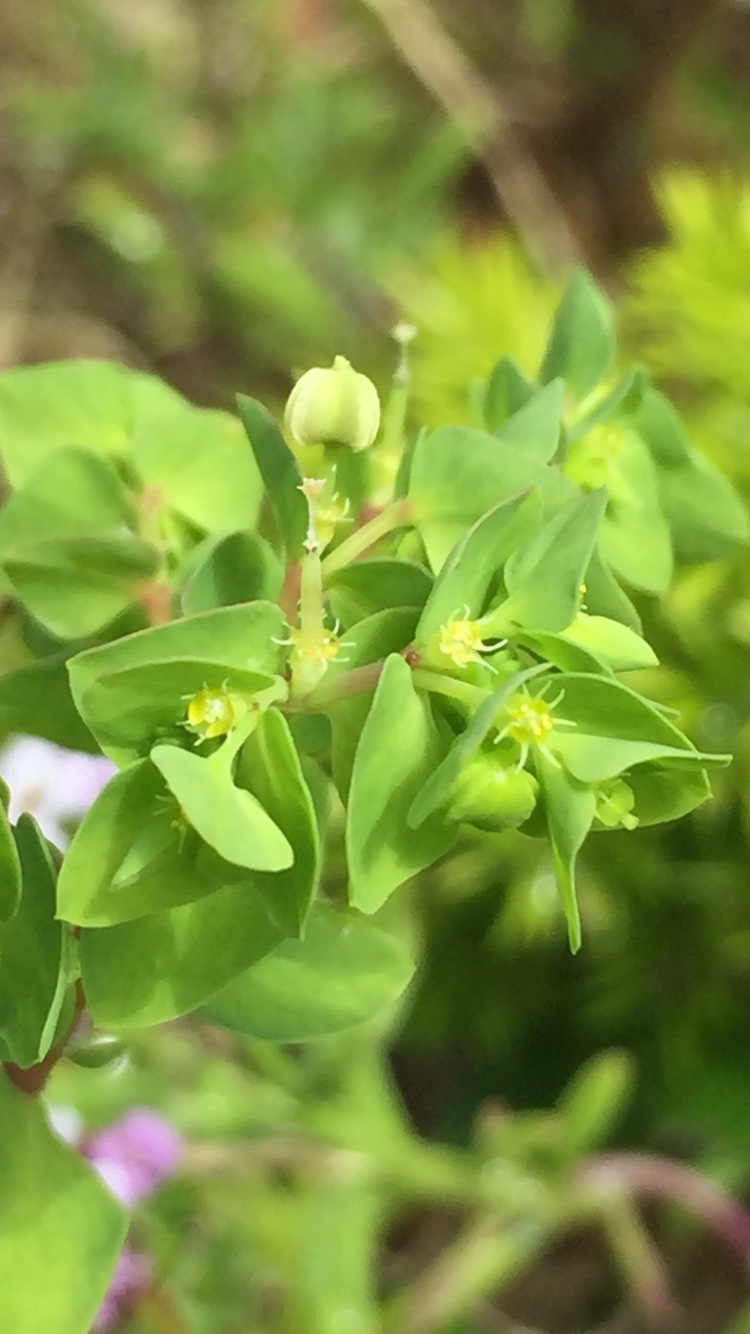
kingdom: Plantae
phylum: Tracheophyta
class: Magnoliopsida
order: Malpighiales
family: Euphorbiaceae
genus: Euphorbia
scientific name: Euphorbia peplus
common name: Petty spurge
